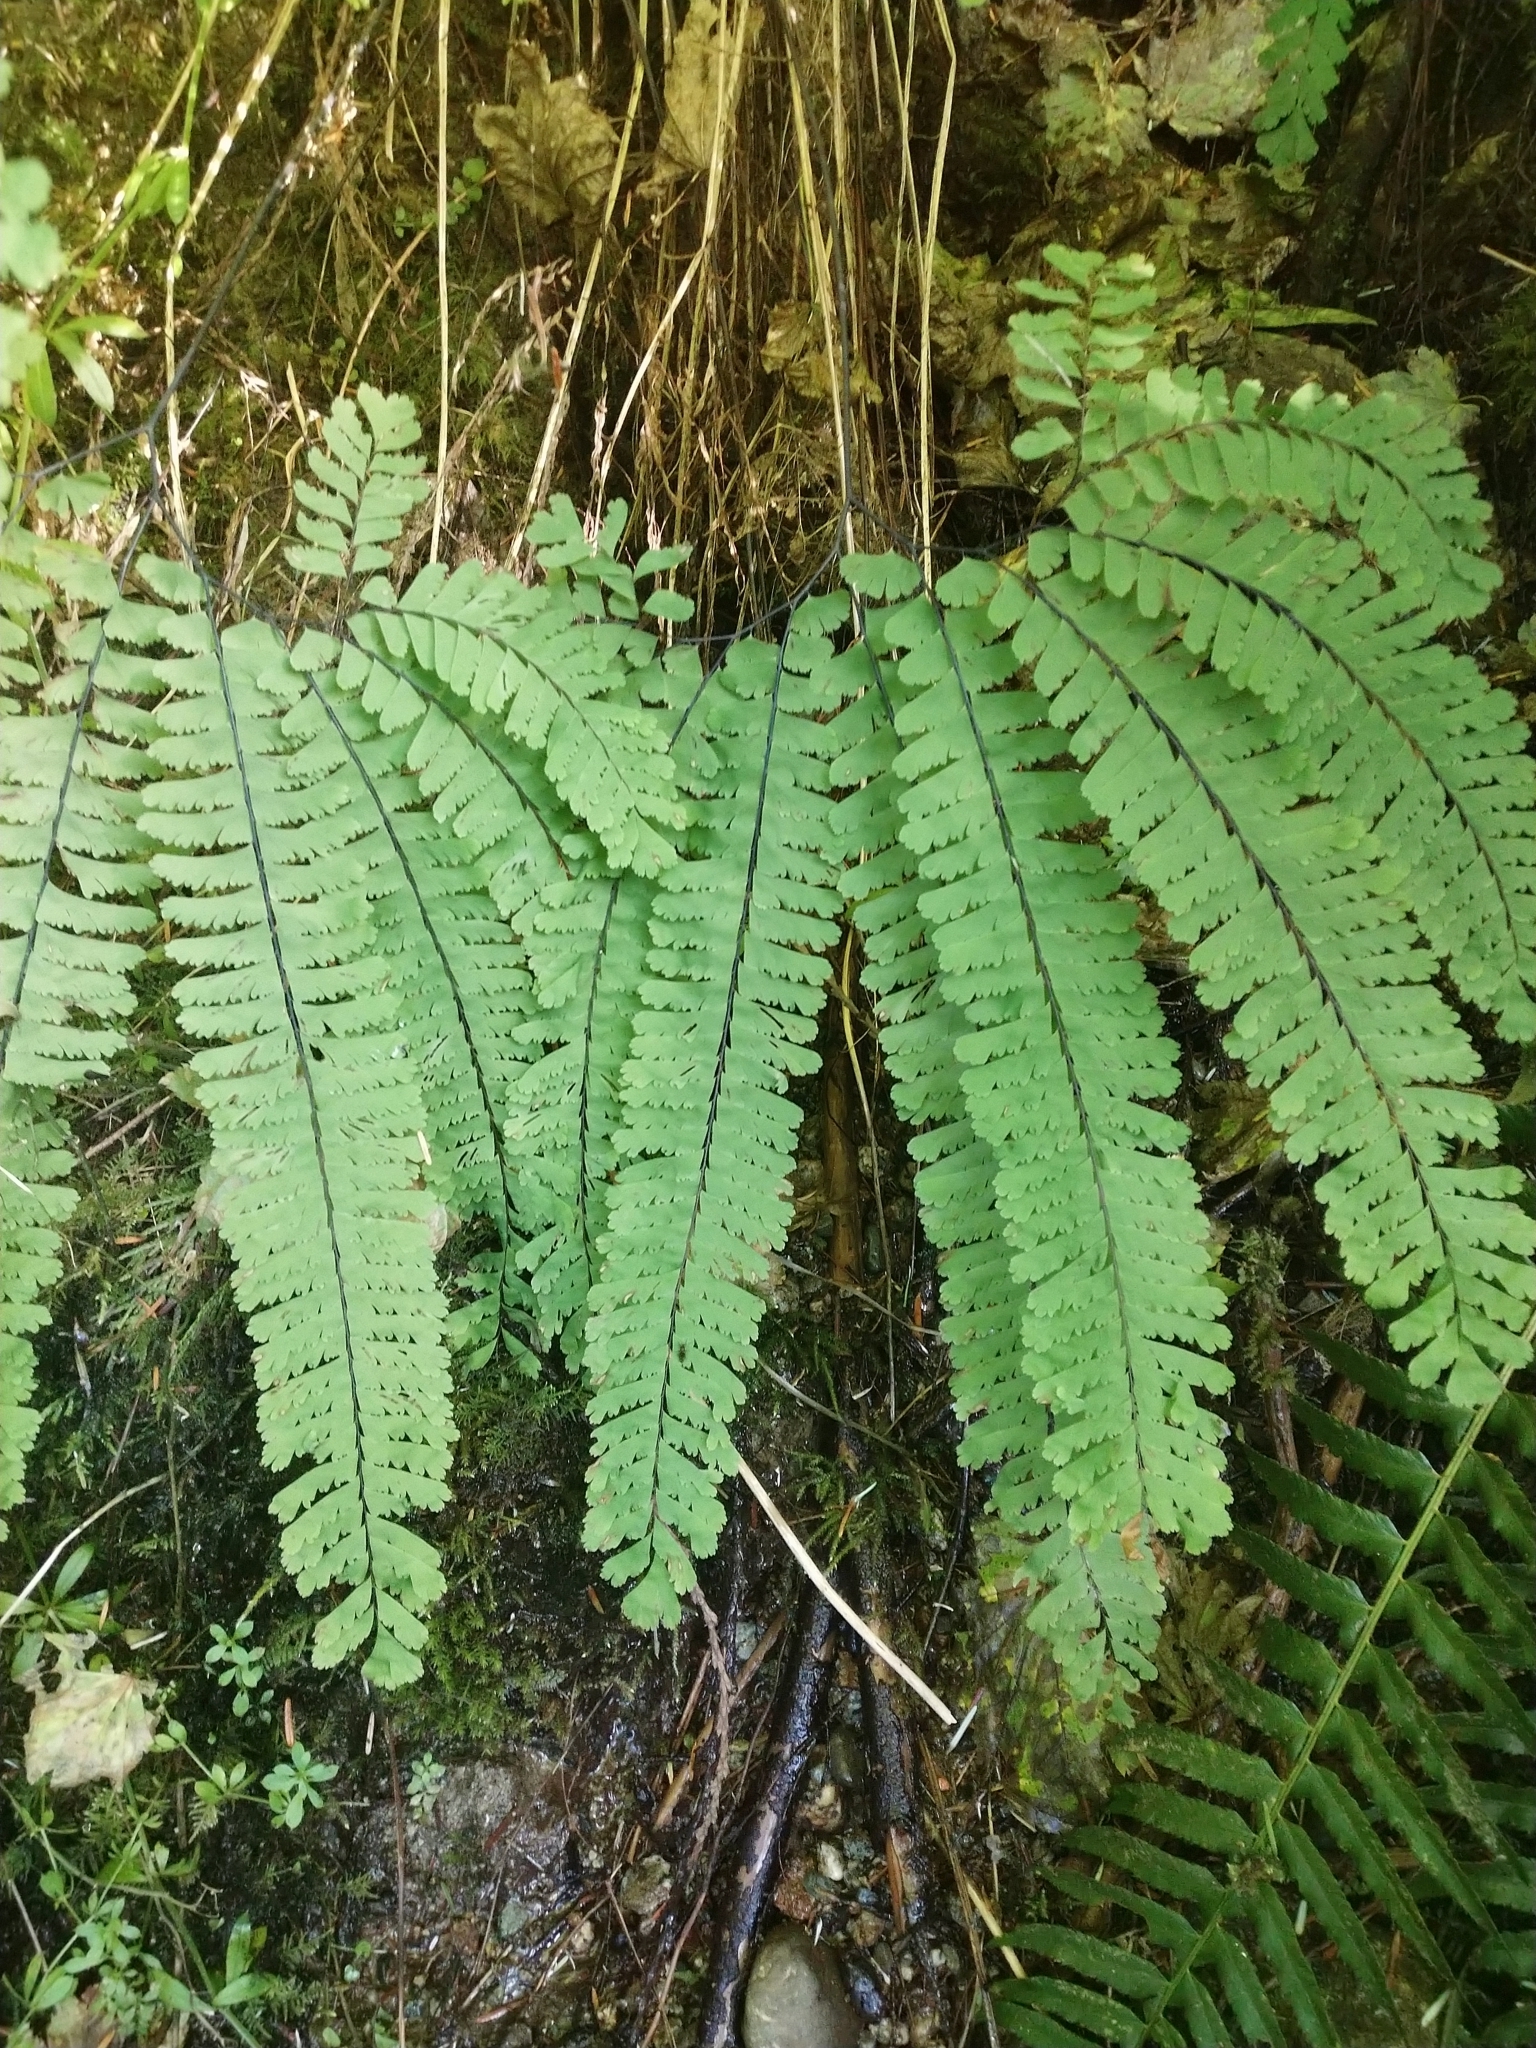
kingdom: Plantae
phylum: Tracheophyta
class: Polypodiopsida
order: Polypodiales
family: Pteridaceae
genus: Adiantum
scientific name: Adiantum aleuticum
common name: Aleutian maidenhair fern
